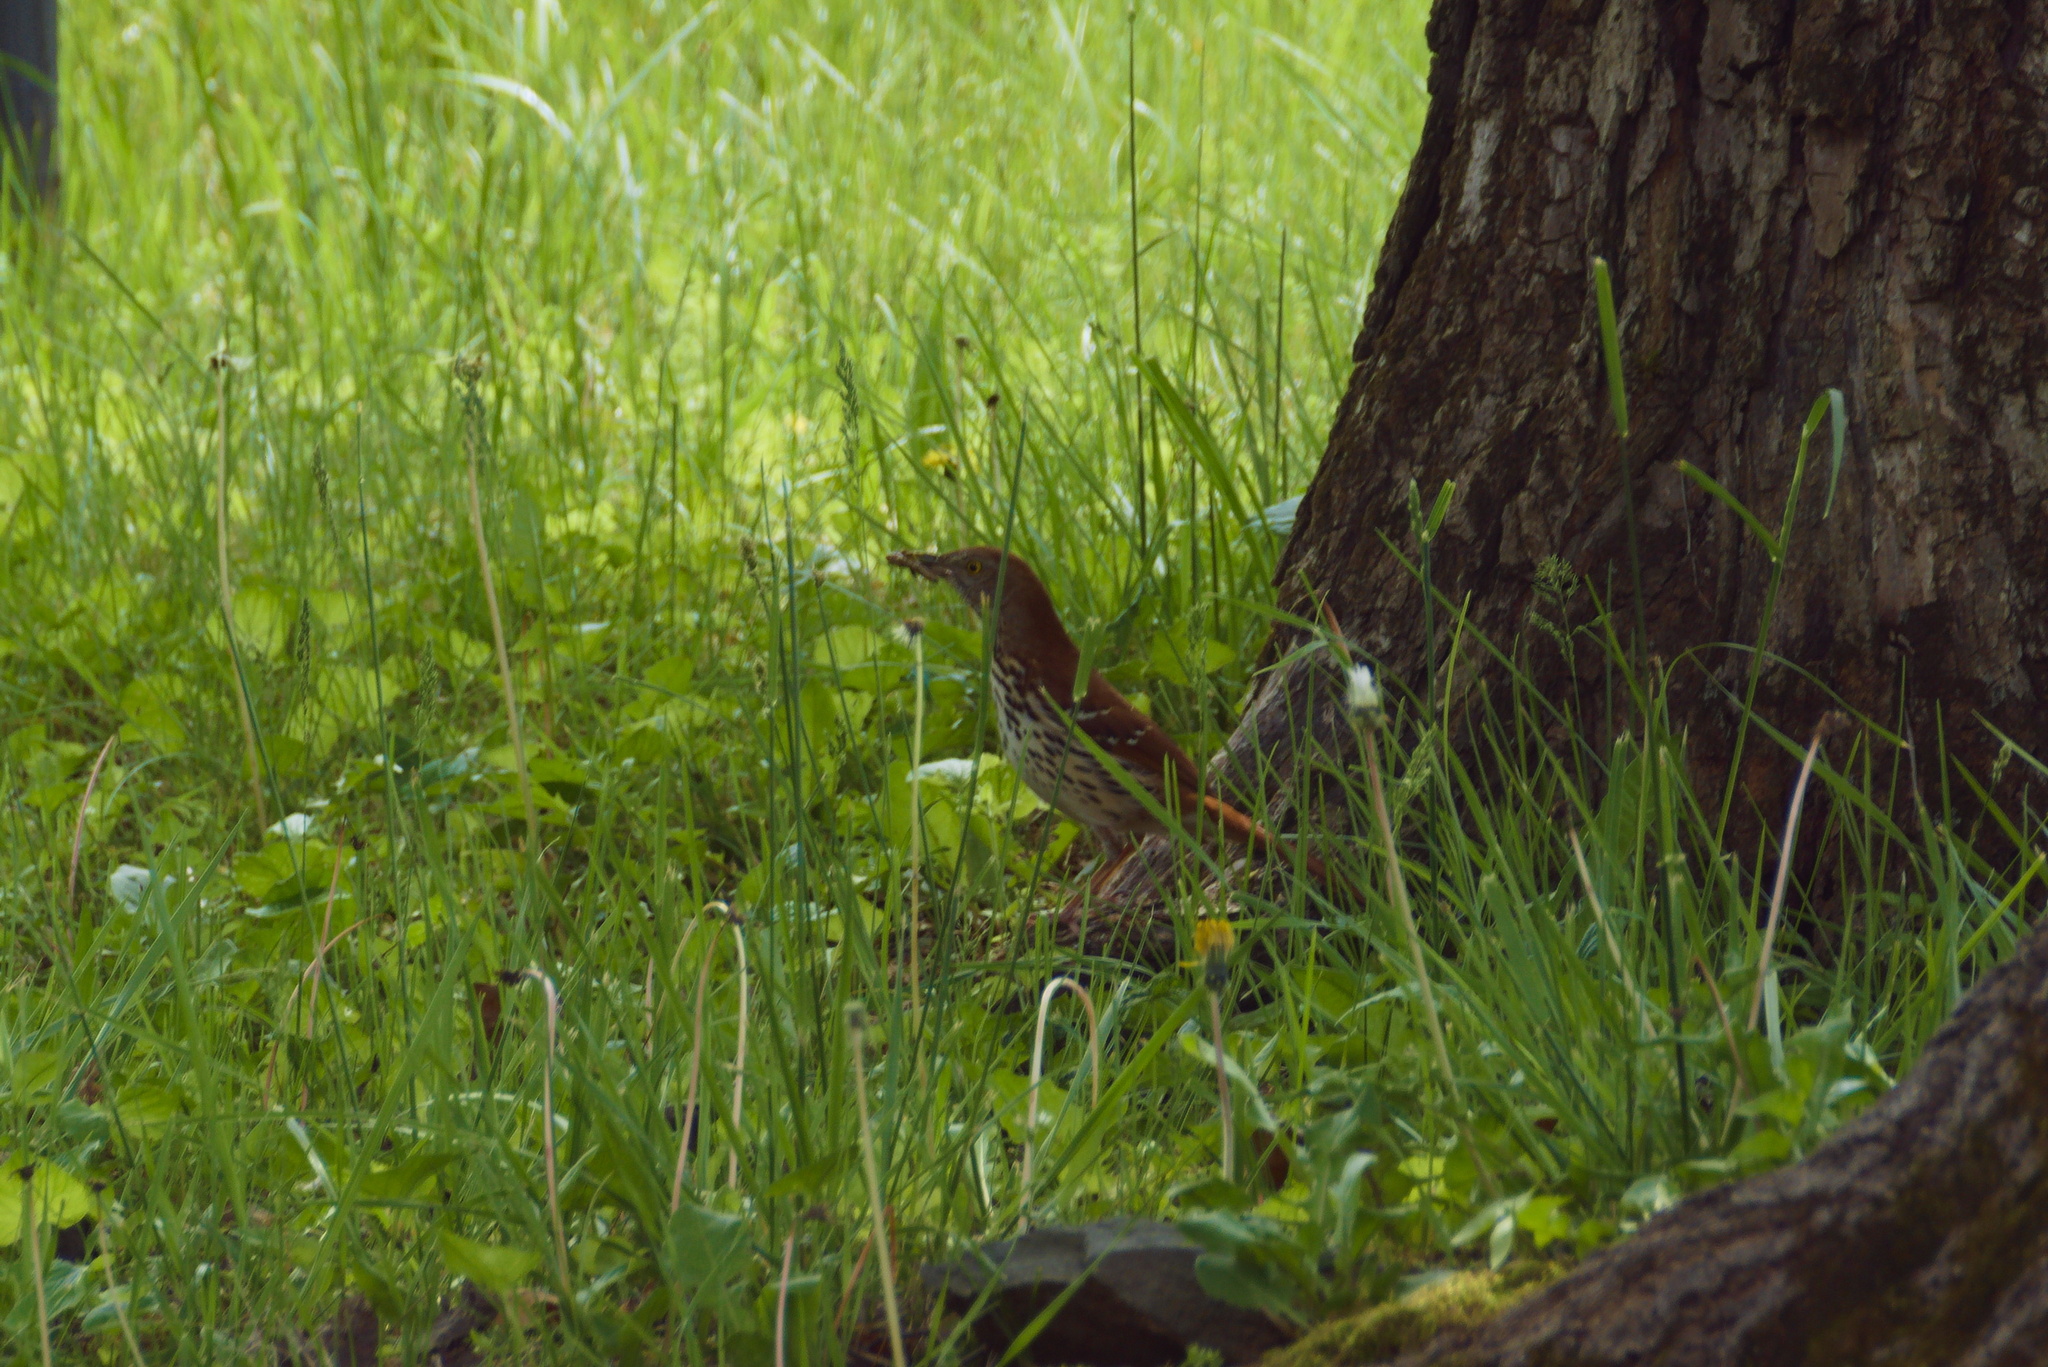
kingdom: Animalia
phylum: Chordata
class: Aves
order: Passeriformes
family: Mimidae
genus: Toxostoma
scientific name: Toxostoma rufum
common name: Brown thrasher
